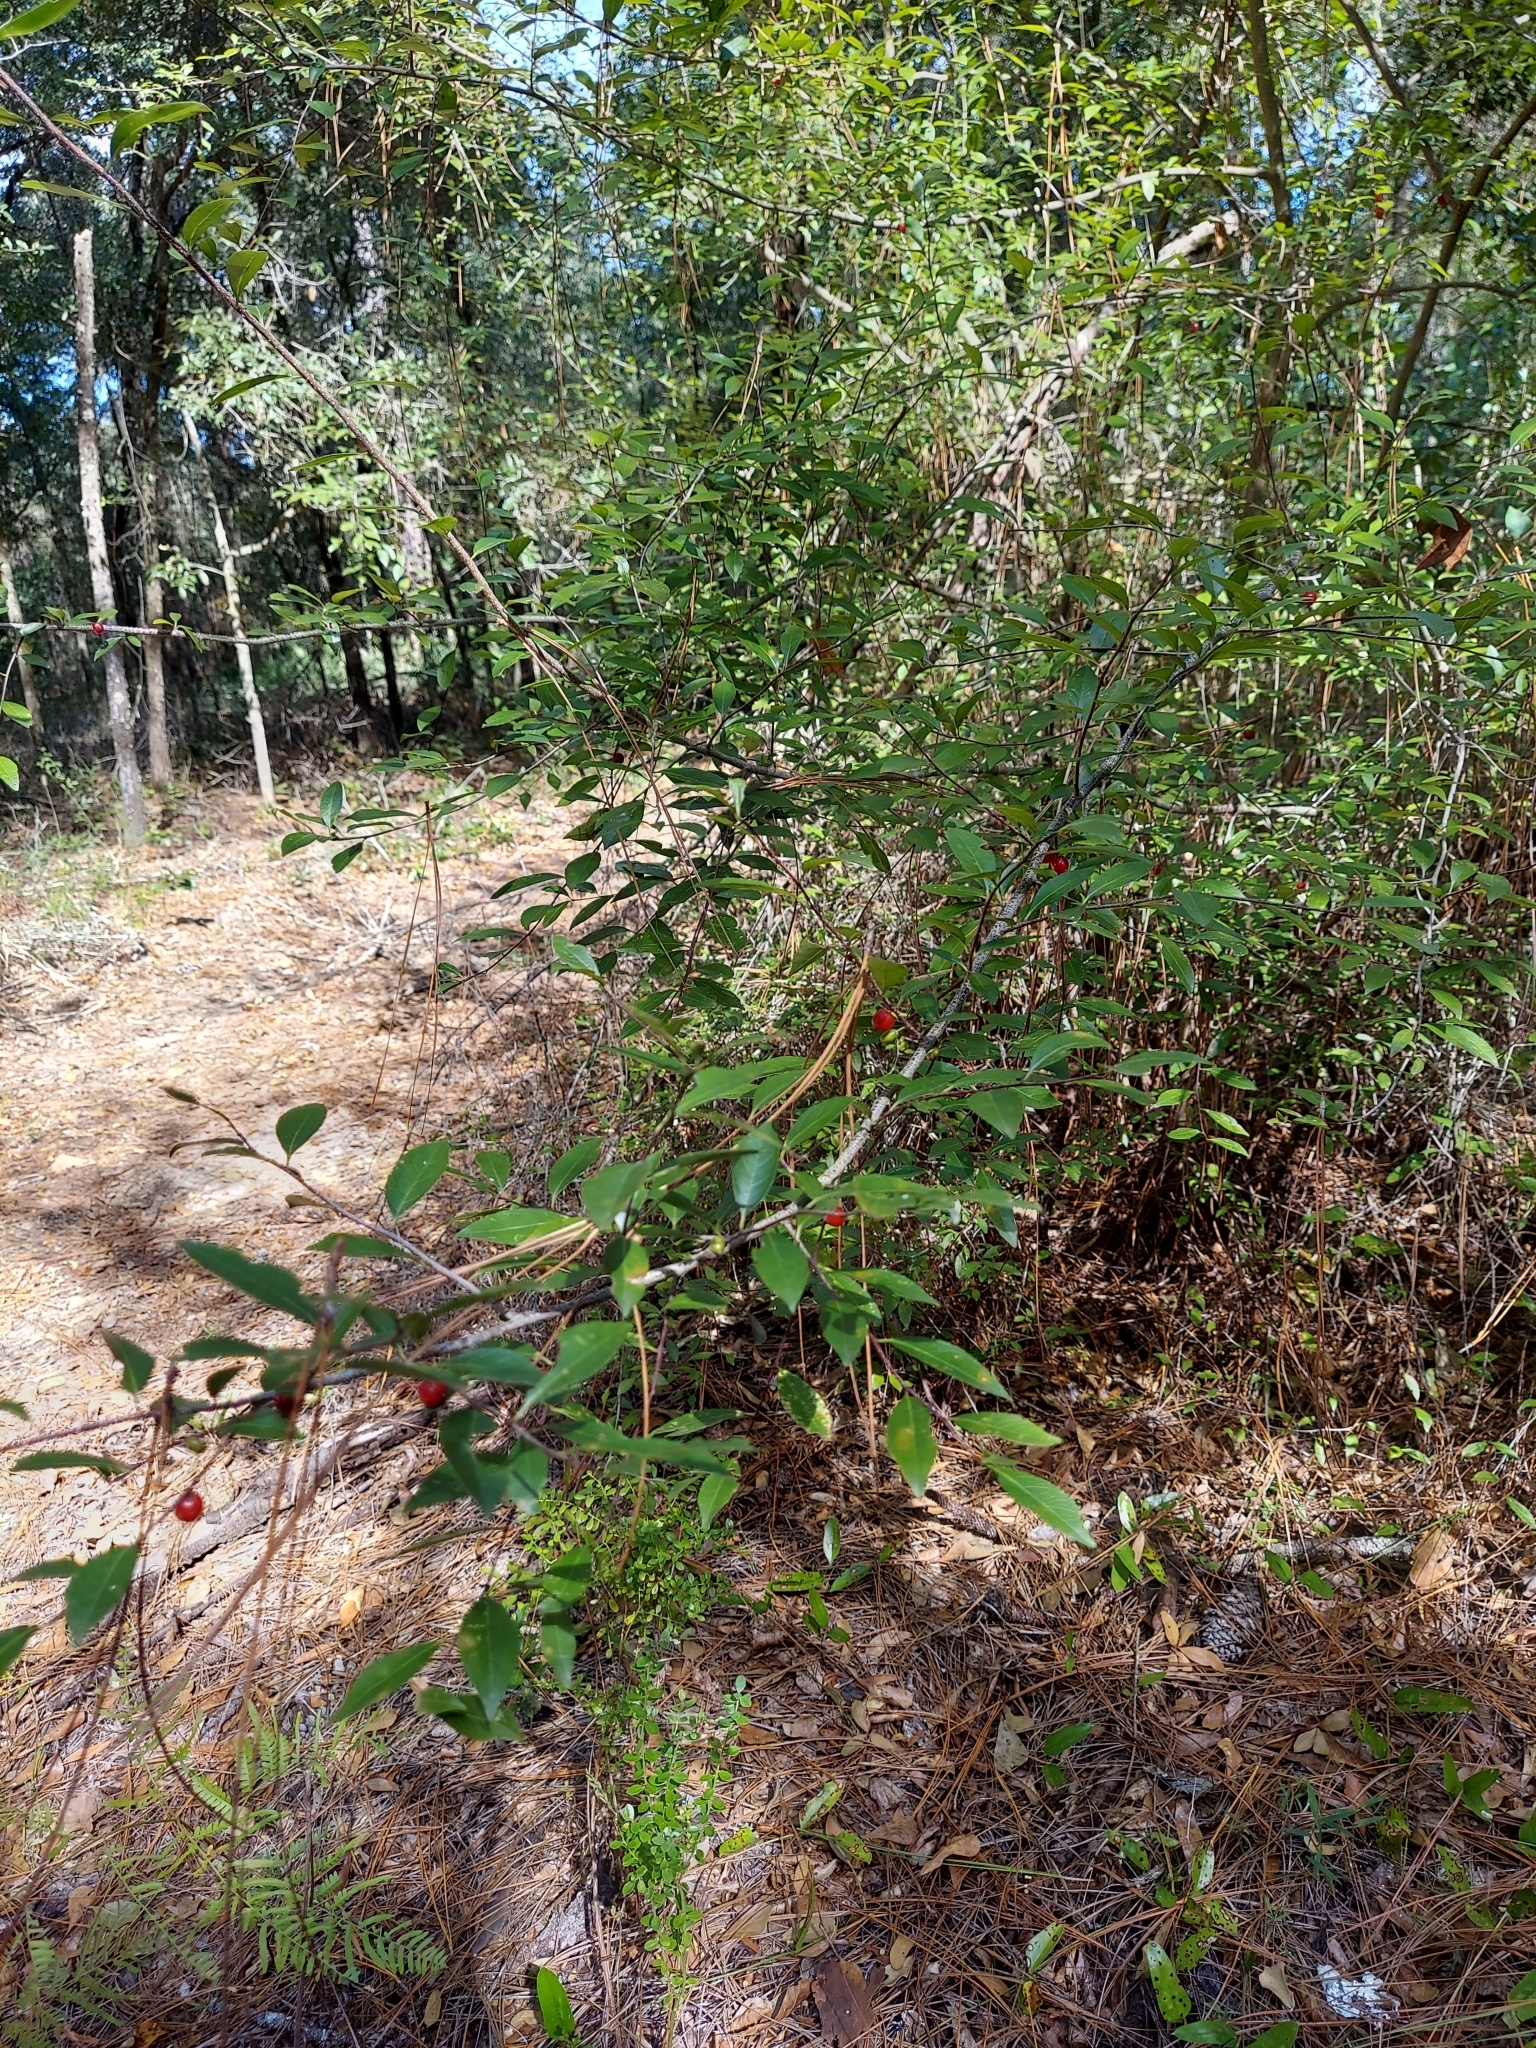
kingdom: Plantae
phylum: Tracheophyta
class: Magnoliopsida
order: Aquifoliales
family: Aquifoliaceae
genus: Ilex
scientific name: Ilex ambigua
